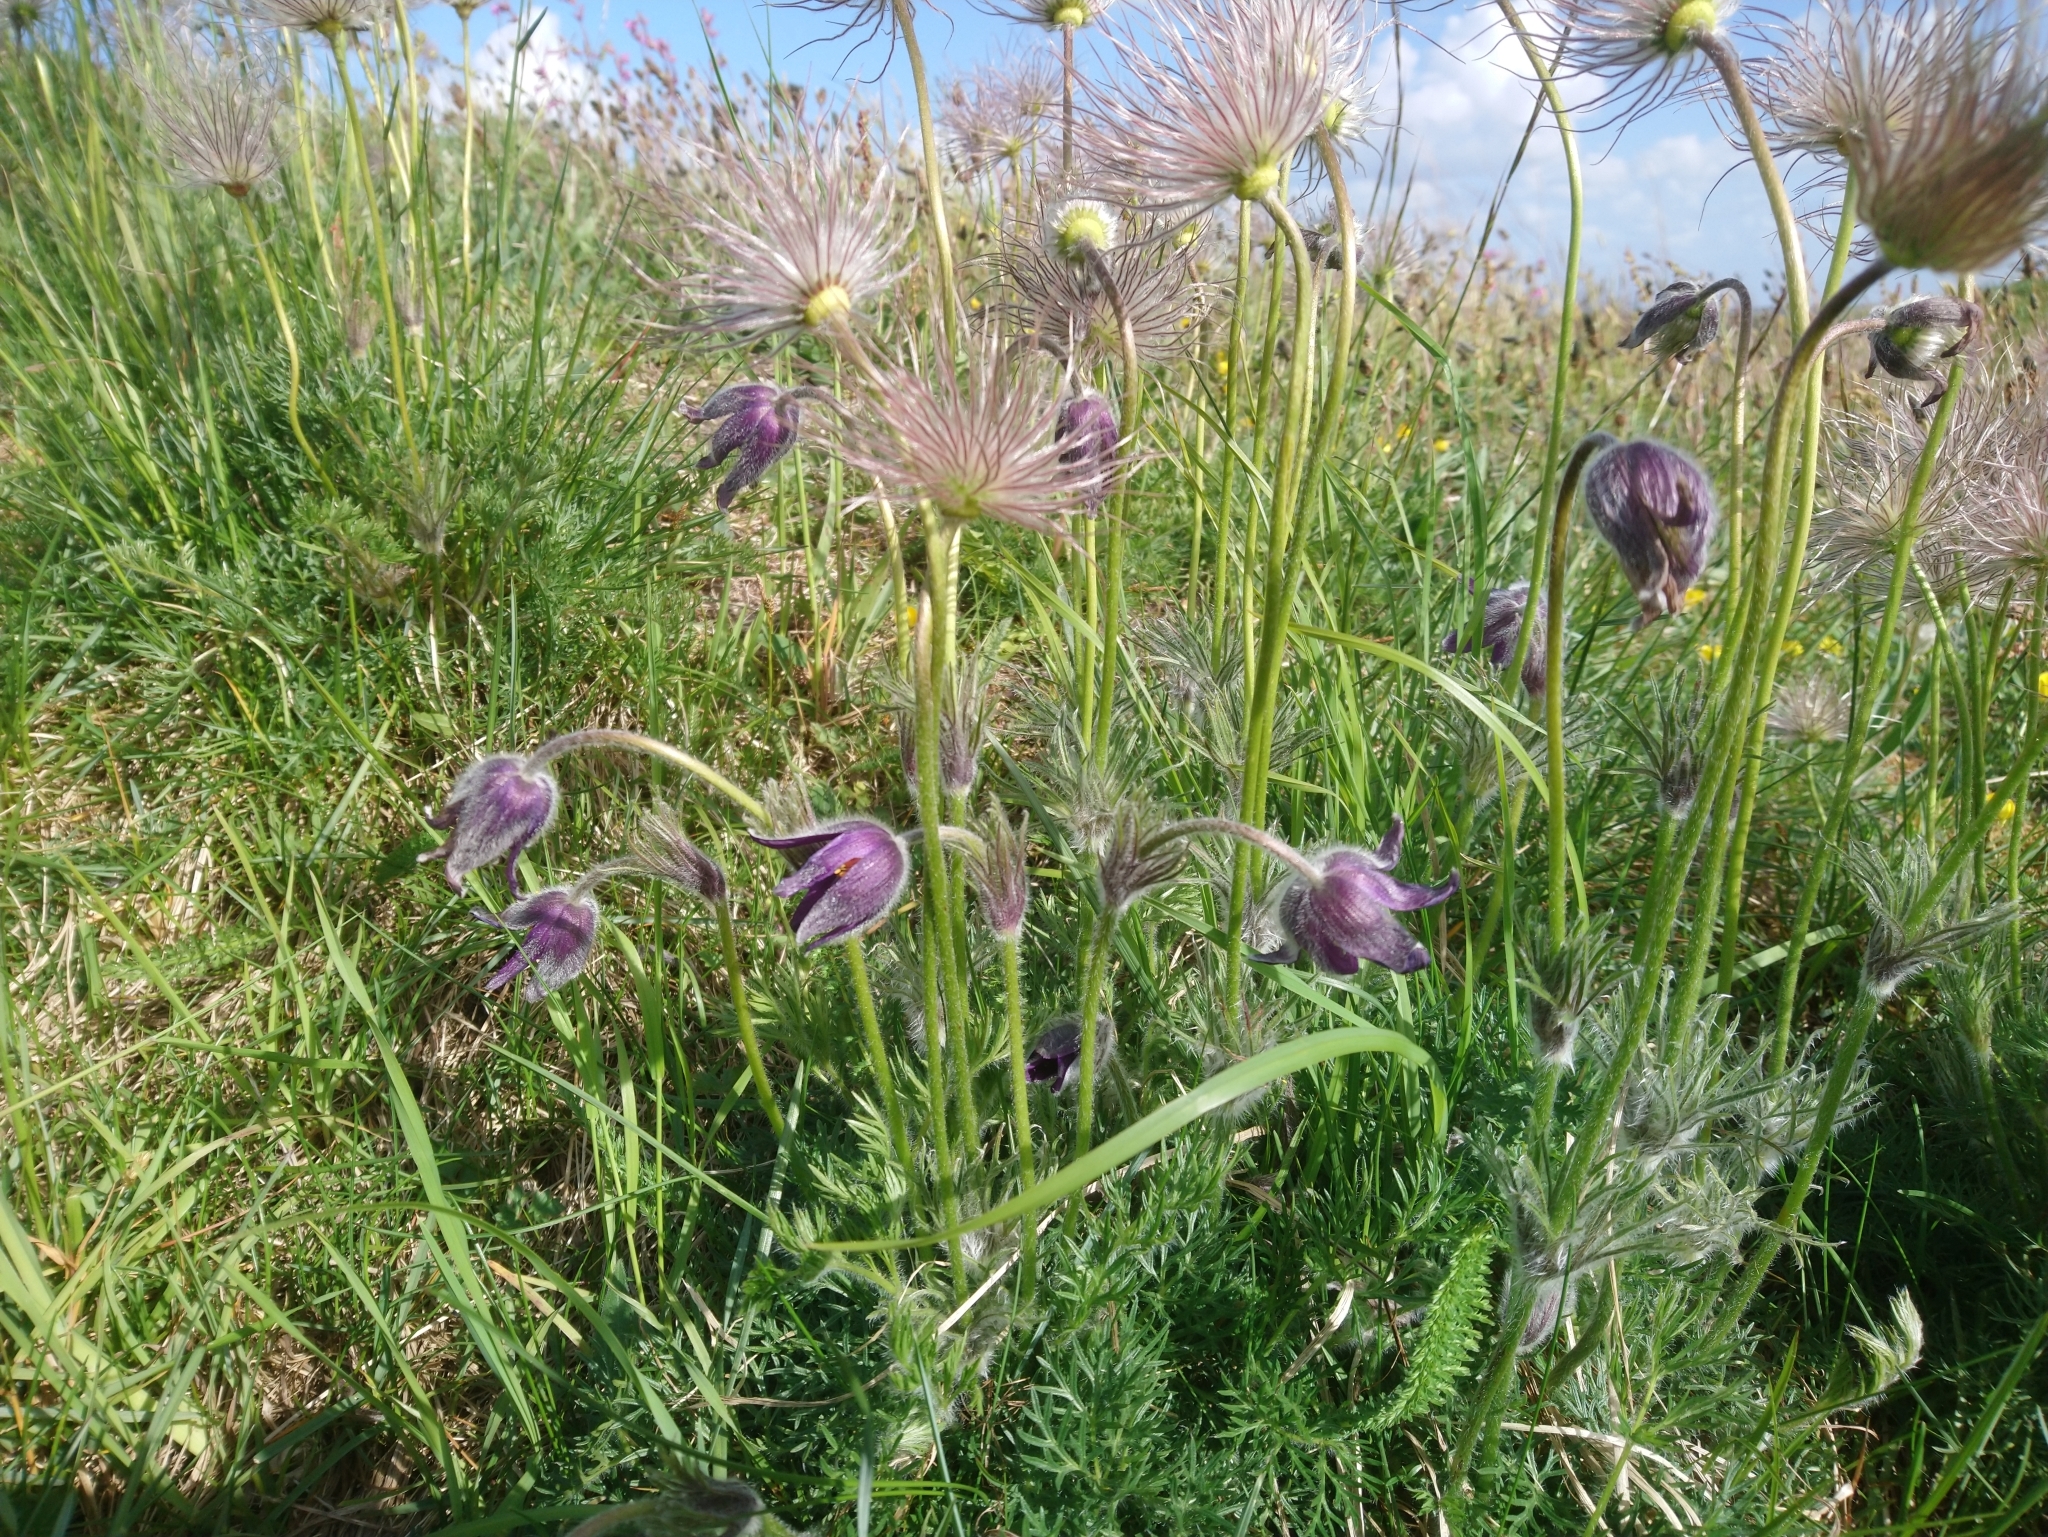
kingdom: Plantae
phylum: Tracheophyta
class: Magnoliopsida
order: Ranunculales
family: Ranunculaceae
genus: Pulsatilla
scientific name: Pulsatilla pratensis
